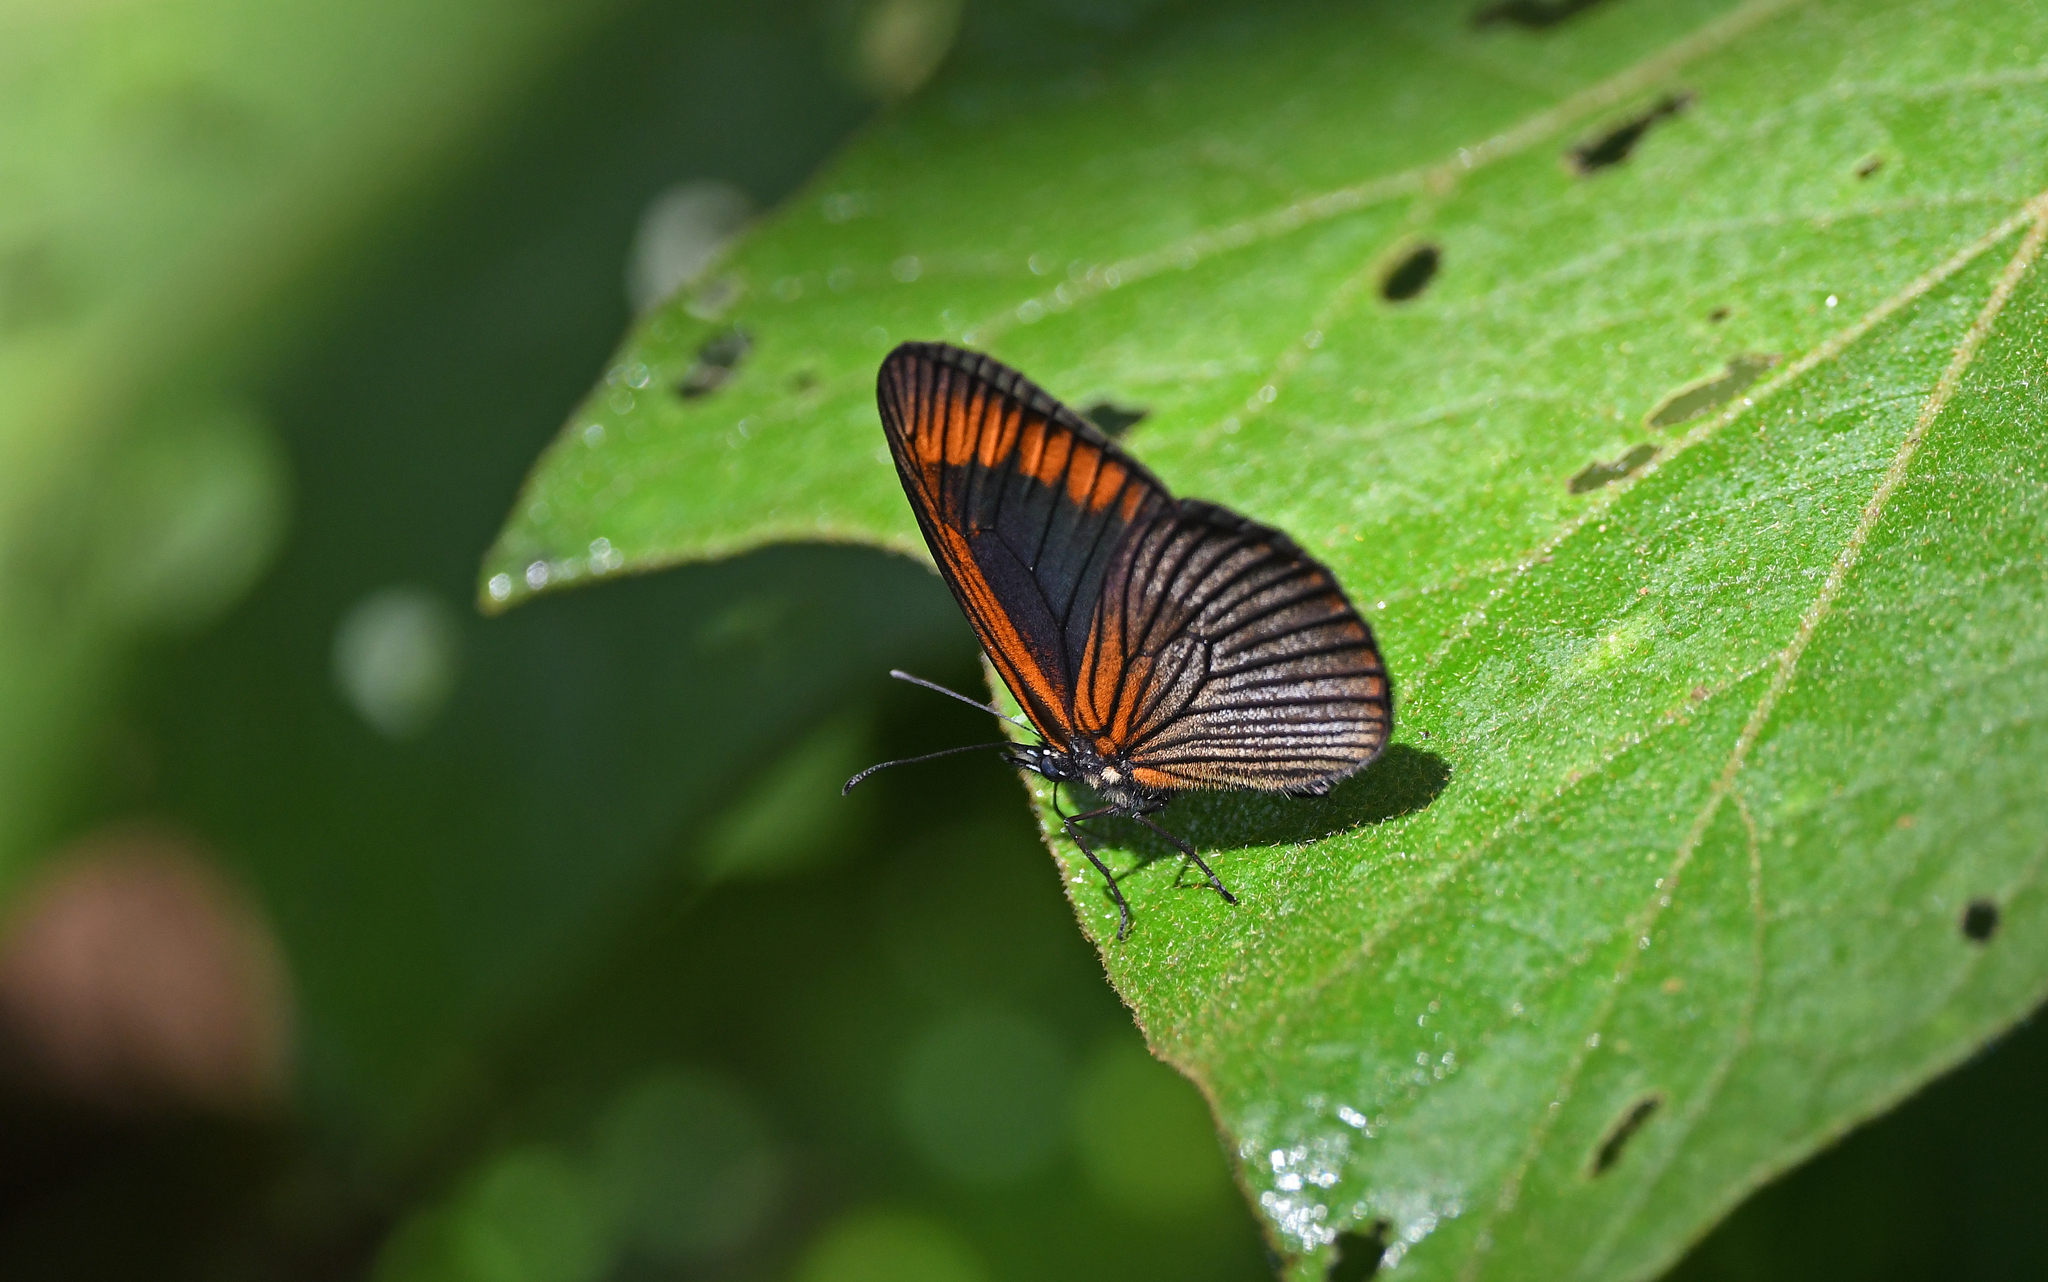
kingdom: Animalia
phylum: Arthropoda
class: Insecta
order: Lepidoptera
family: Nymphalidae
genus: Lymanopoda
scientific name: Lymanopoda acraeida
